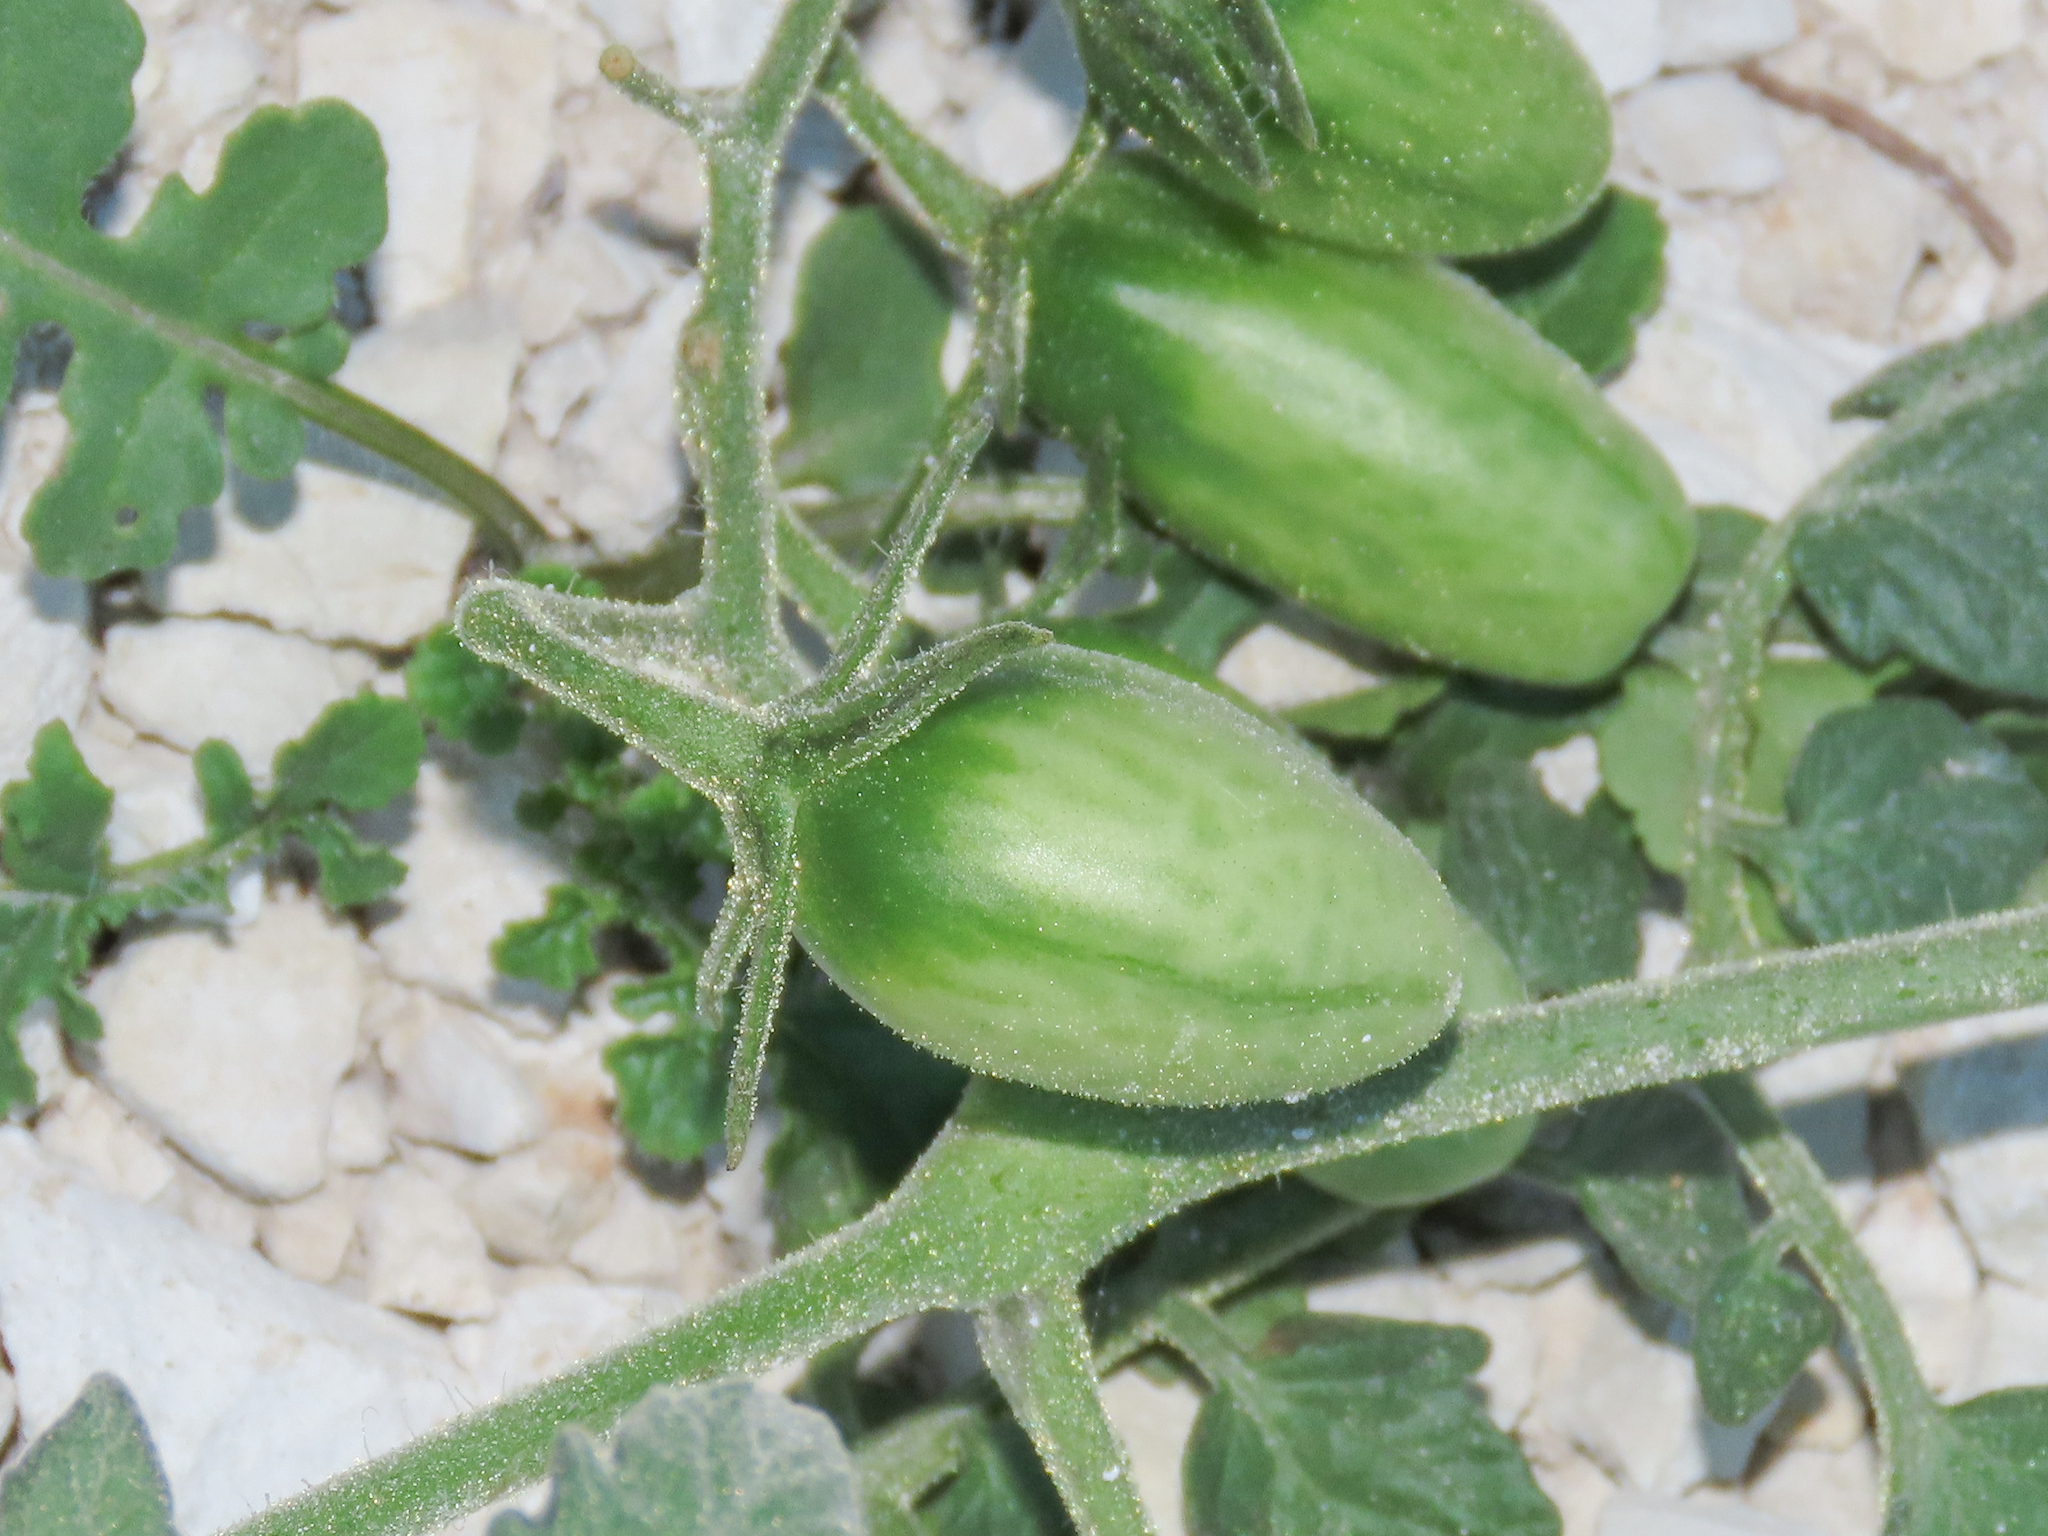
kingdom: Plantae
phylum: Tracheophyta
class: Magnoliopsida
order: Solanales
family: Solanaceae
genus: Solanum
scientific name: Solanum lycopersicum
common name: Garden tomato
